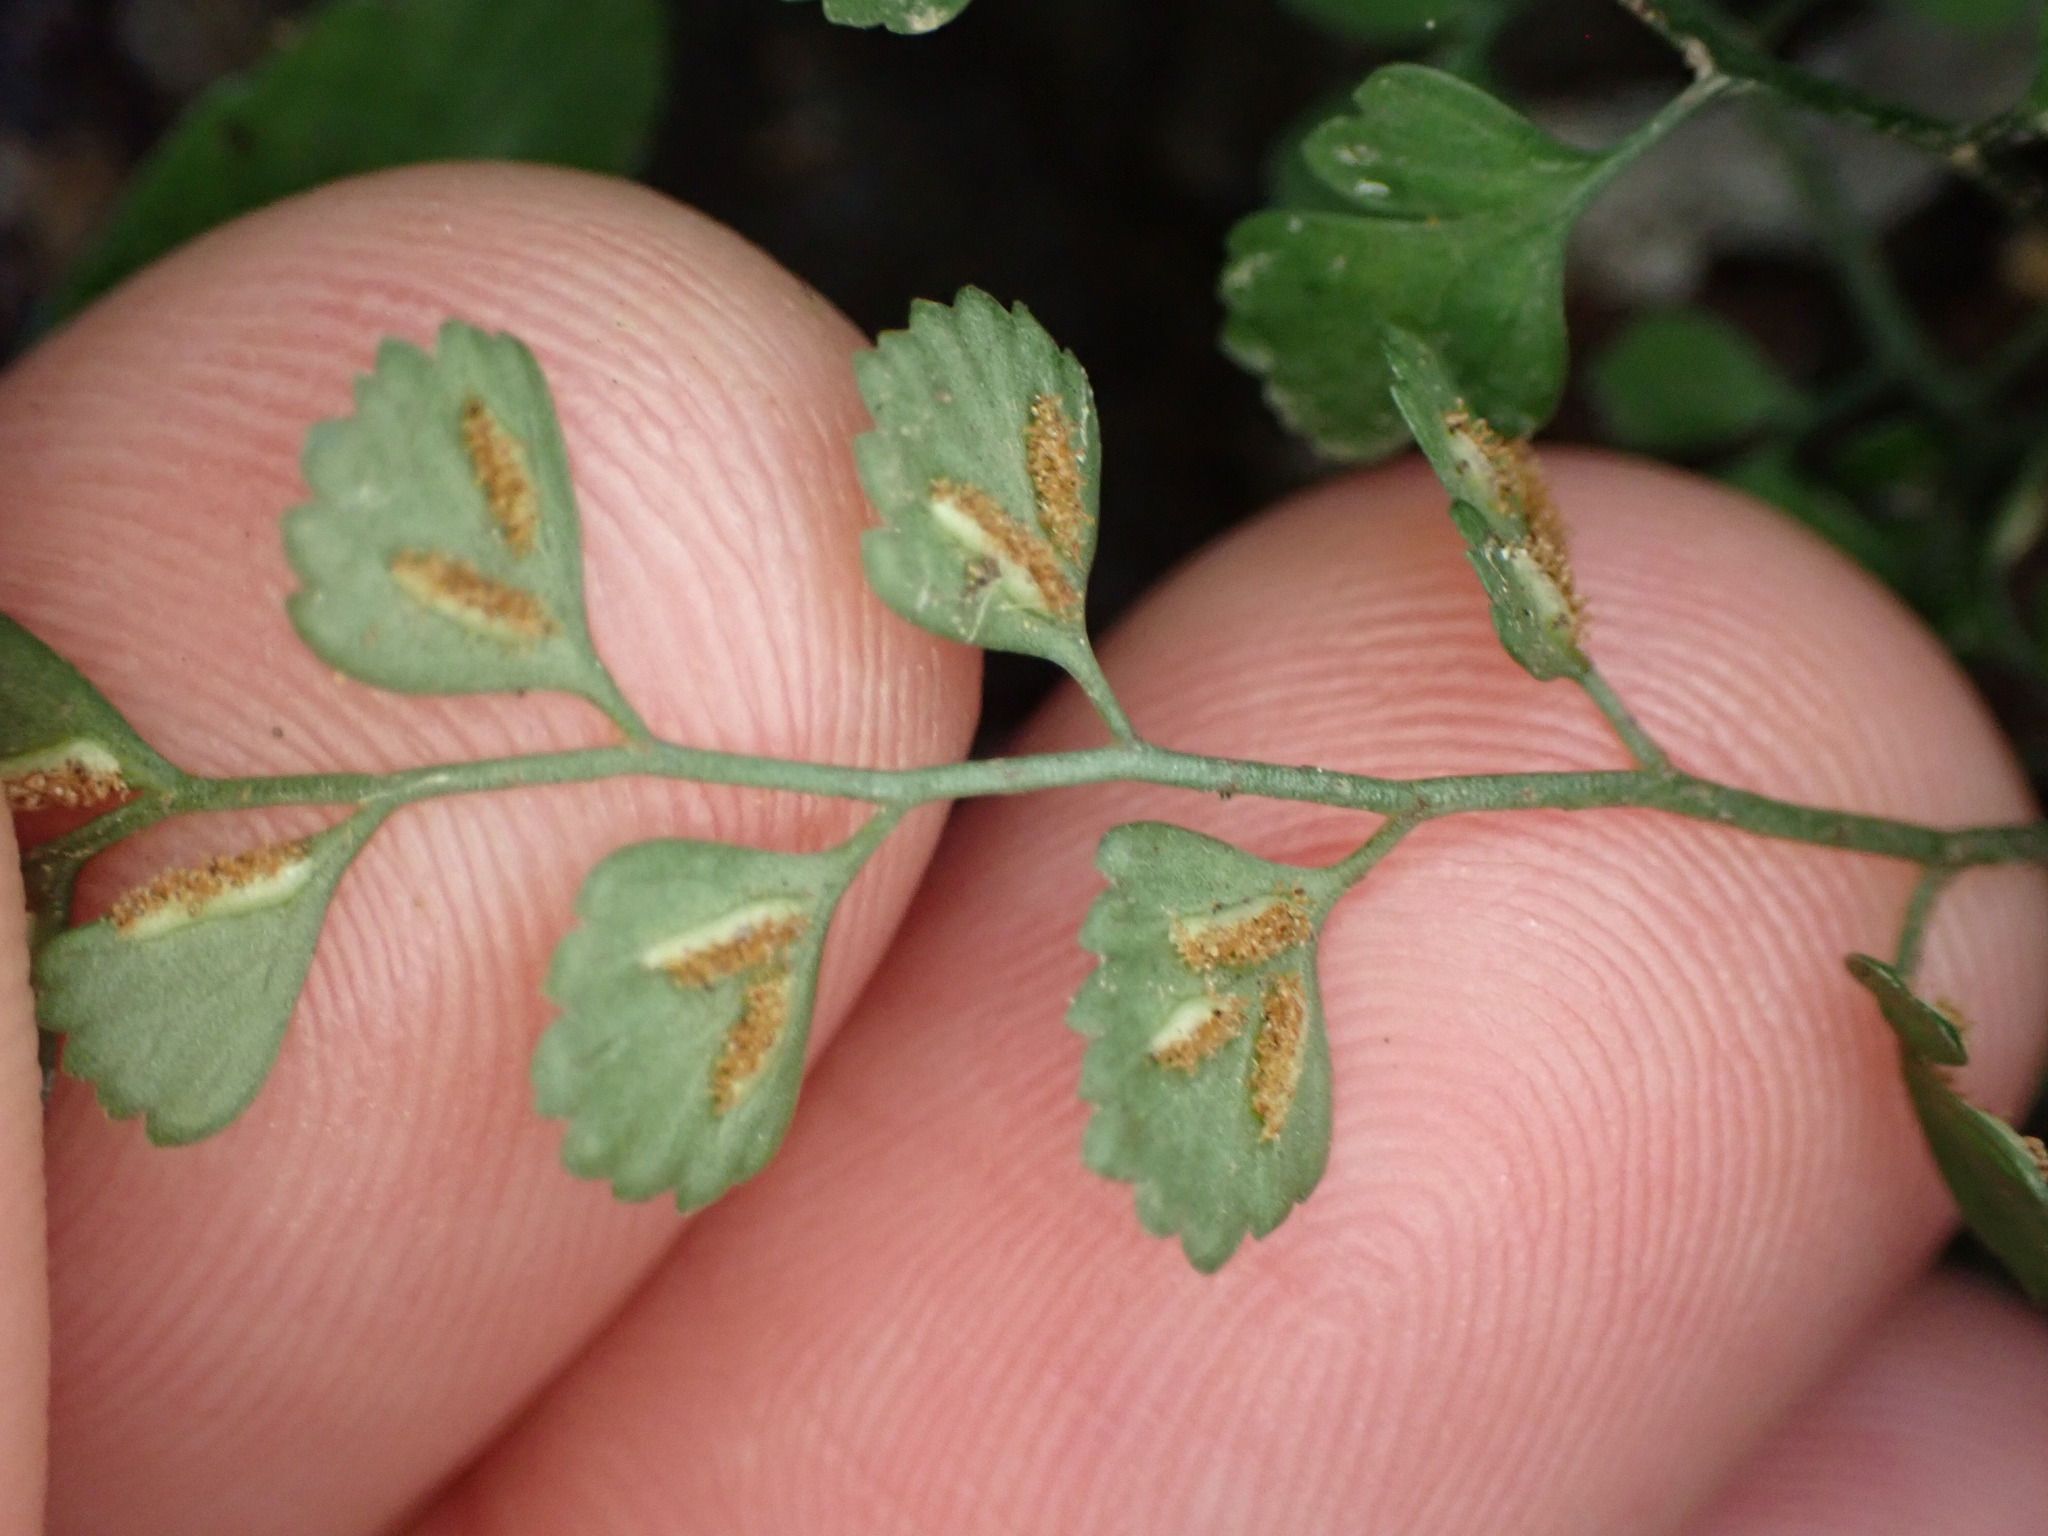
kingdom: Plantae
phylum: Tracheophyta
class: Polypodiopsida
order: Polypodiales
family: Aspleniaceae
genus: Asplenium
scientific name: Asplenium hookerianum
